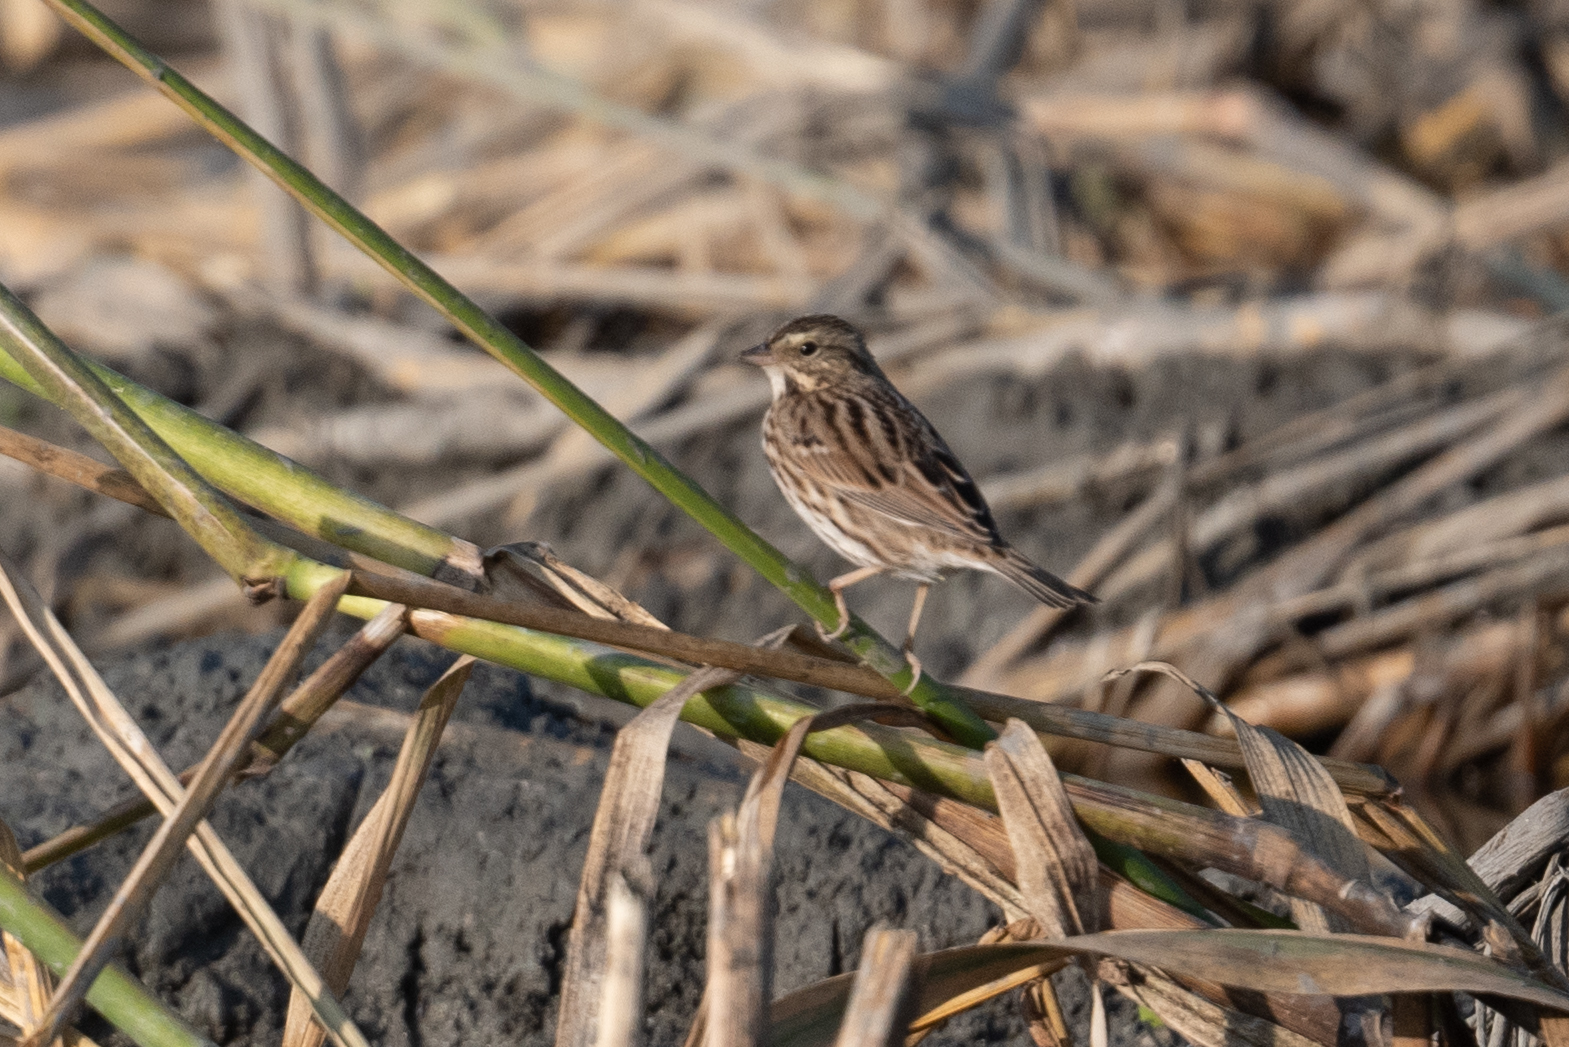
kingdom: Animalia
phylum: Chordata
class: Aves
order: Passeriformes
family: Passerellidae
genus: Passerculus
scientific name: Passerculus sandwichensis
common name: Savannah sparrow
